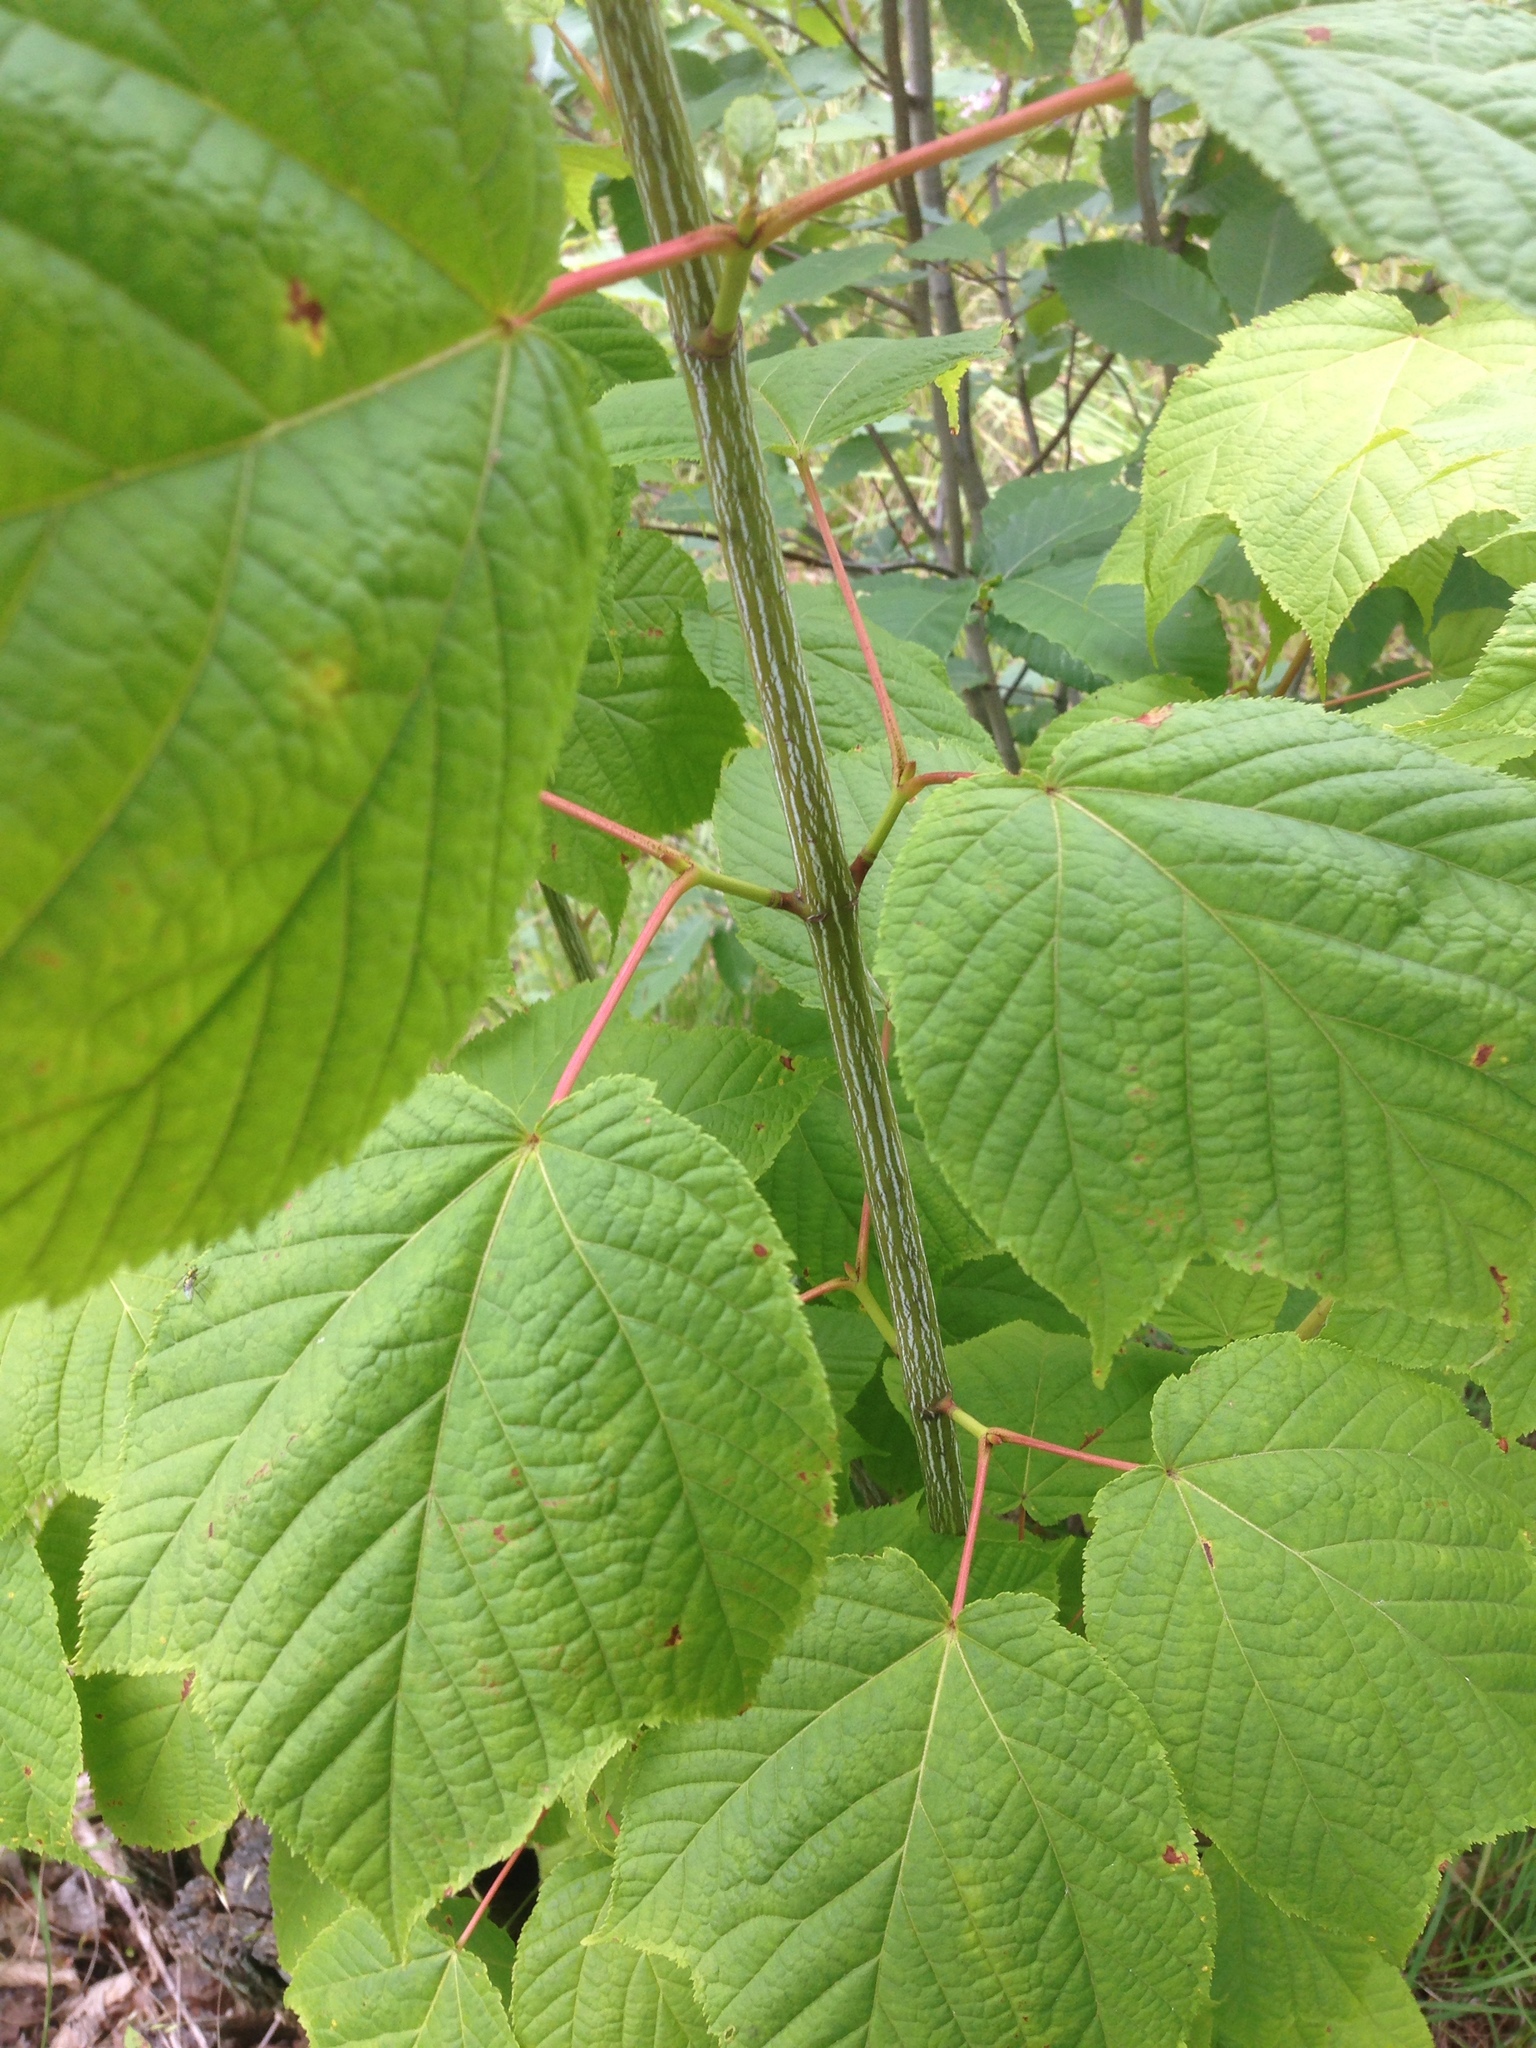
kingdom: Plantae
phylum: Tracheophyta
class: Magnoliopsida
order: Sapindales
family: Sapindaceae
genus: Acer
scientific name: Acer pensylvanicum
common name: Moosewood
